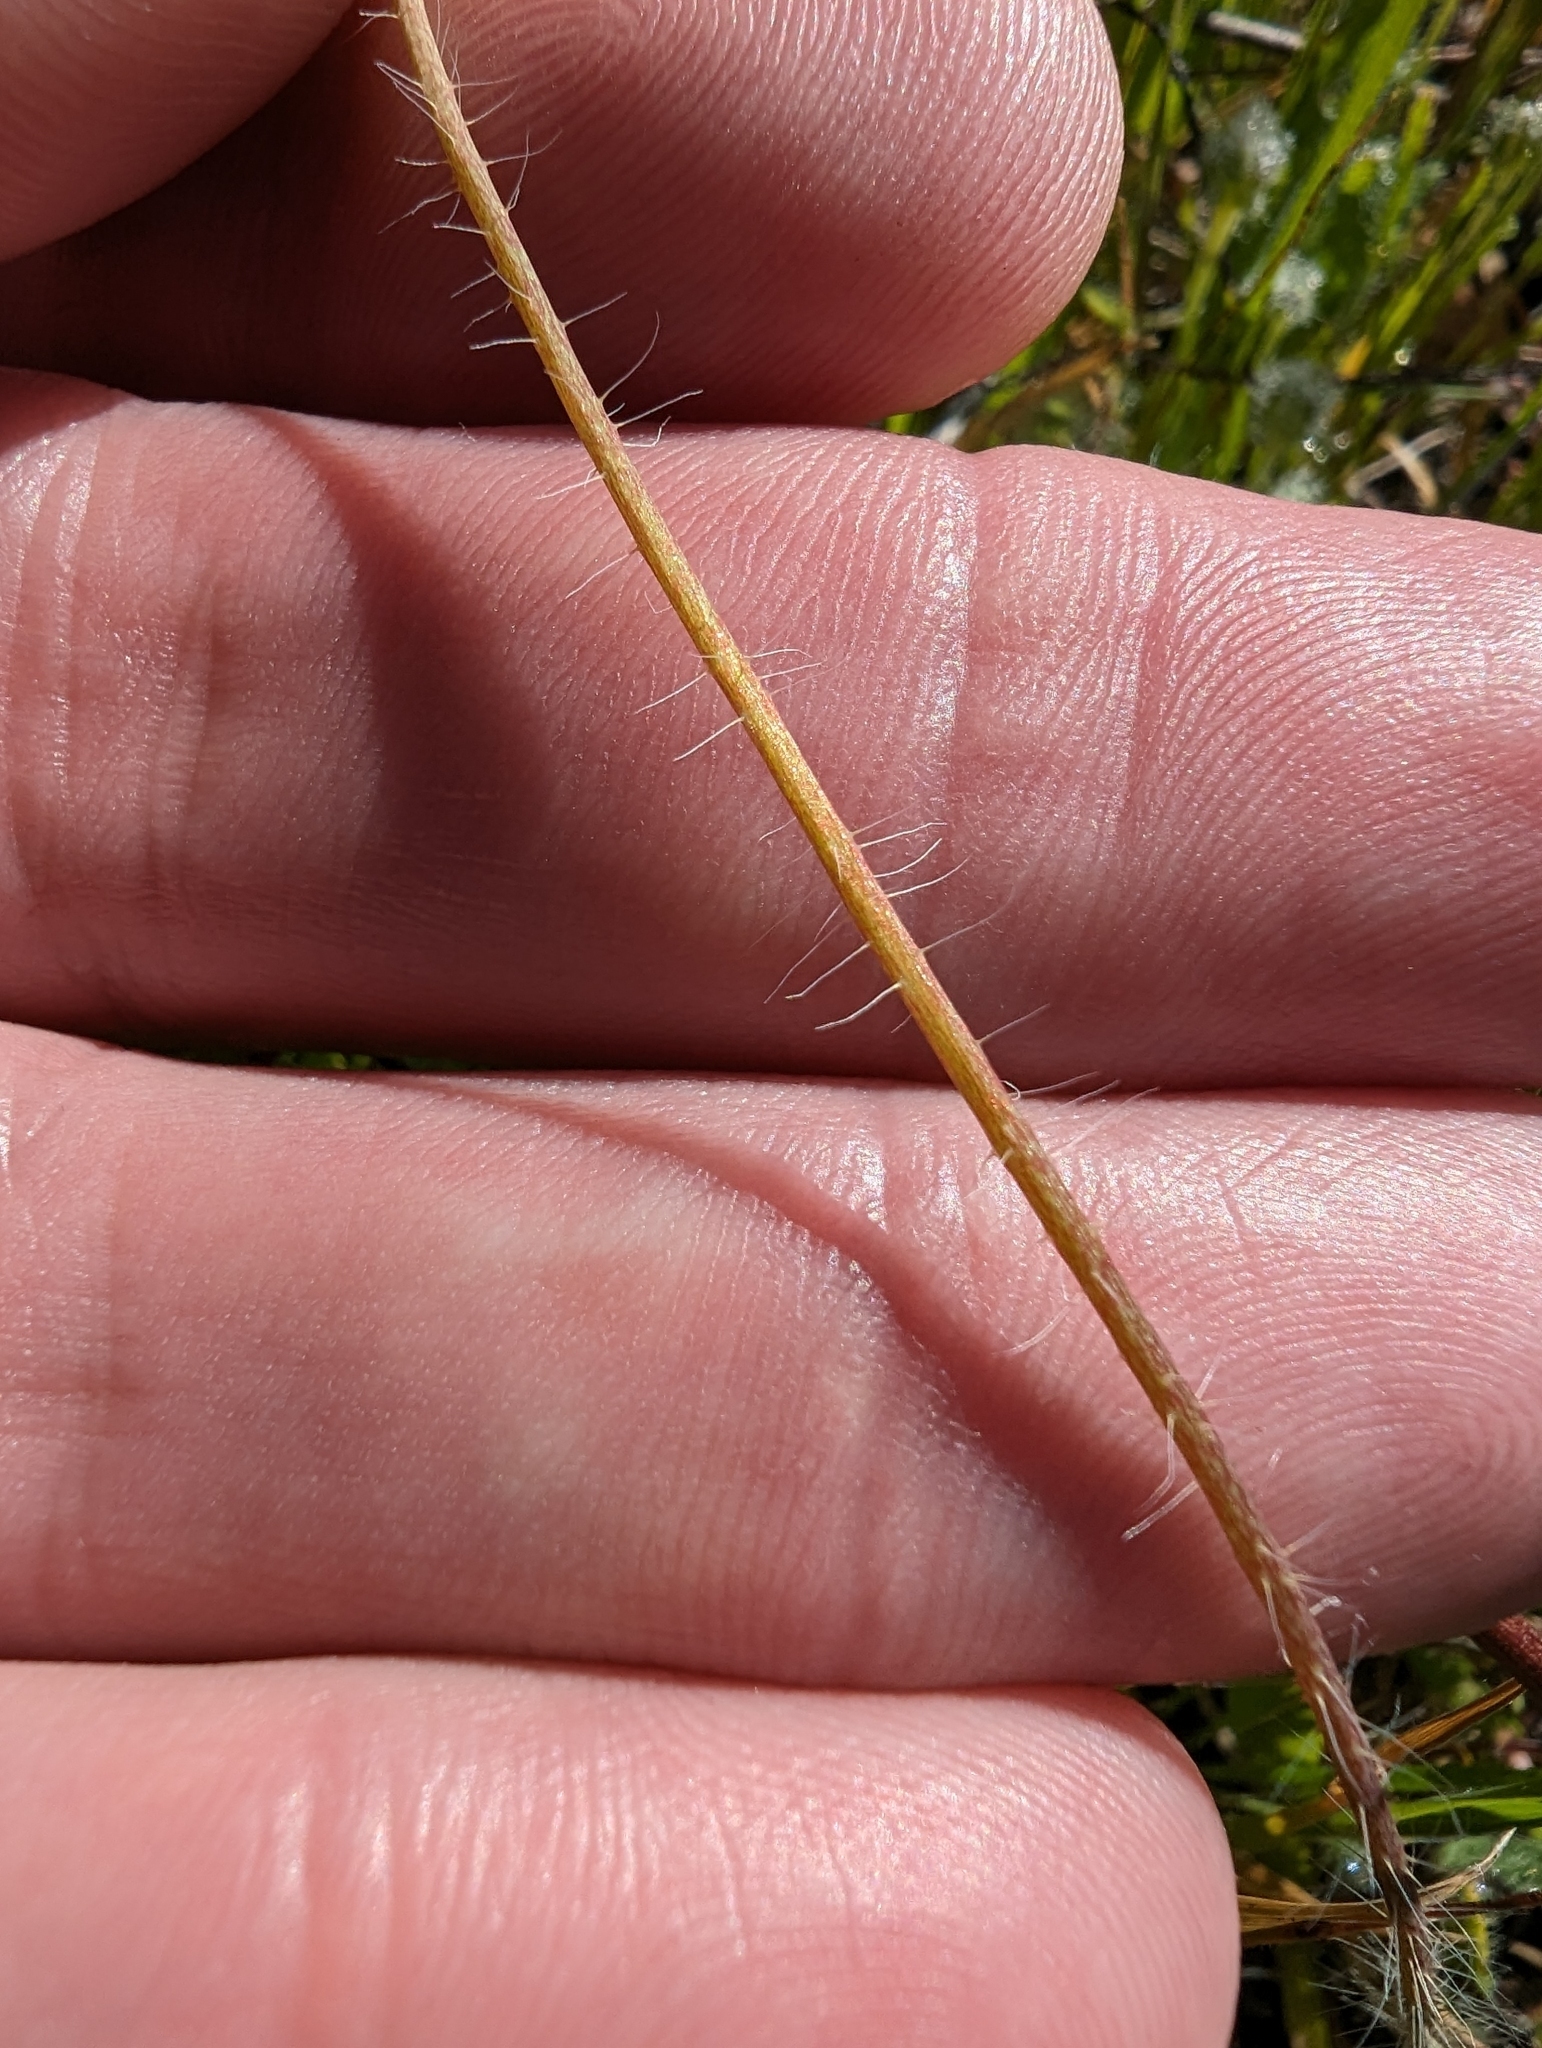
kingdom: Plantae
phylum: Tracheophyta
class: Magnoliopsida
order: Ranunculales
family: Papaveraceae
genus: Platystemon
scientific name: Platystemon californicus
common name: Cream-cups
